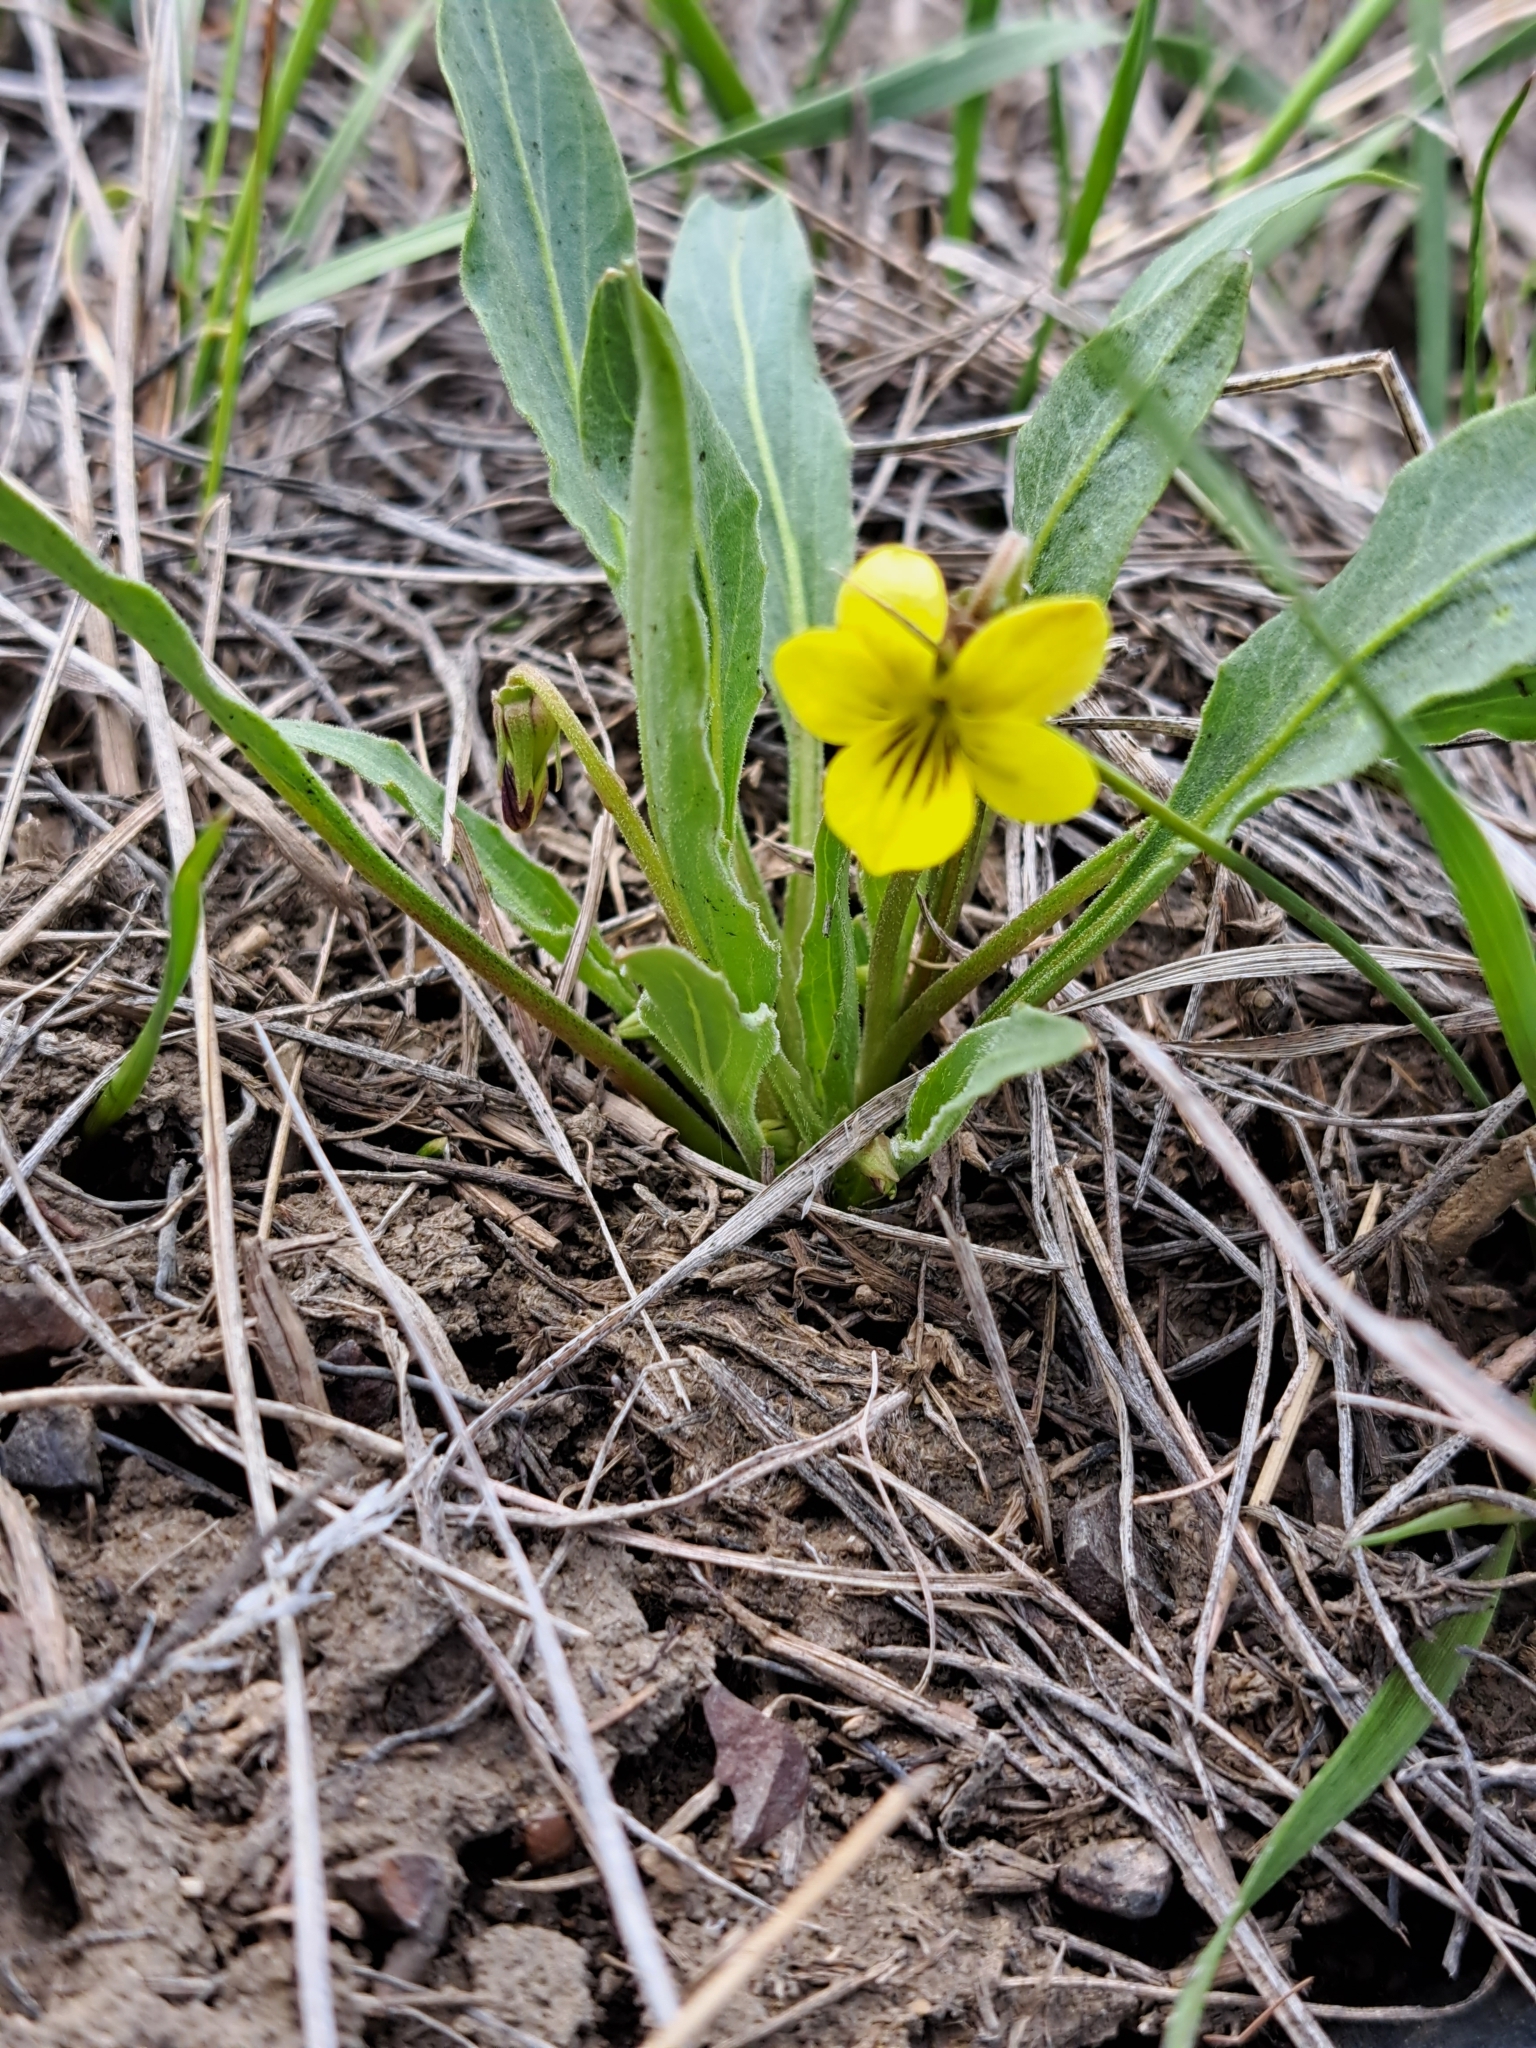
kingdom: Plantae
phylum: Tracheophyta
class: Magnoliopsida
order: Malpighiales
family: Violaceae
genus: Viola
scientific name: Viola nuttallii
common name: Yellow prairie violet
